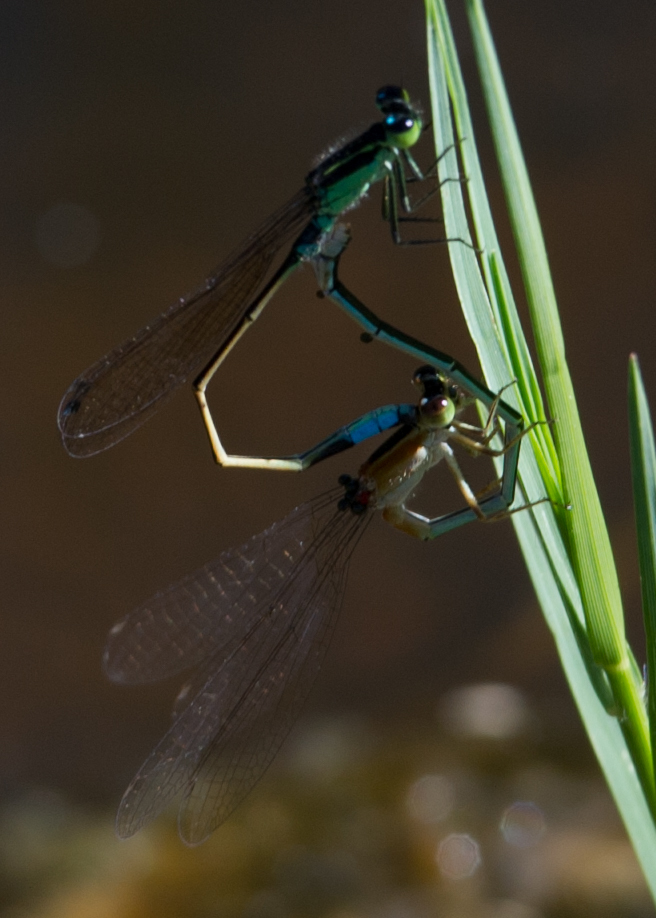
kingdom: Animalia
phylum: Arthropoda
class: Insecta
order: Odonata
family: Coenagrionidae
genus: Ischnura
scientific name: Ischnura senegalensis
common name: Tropical bluetail
